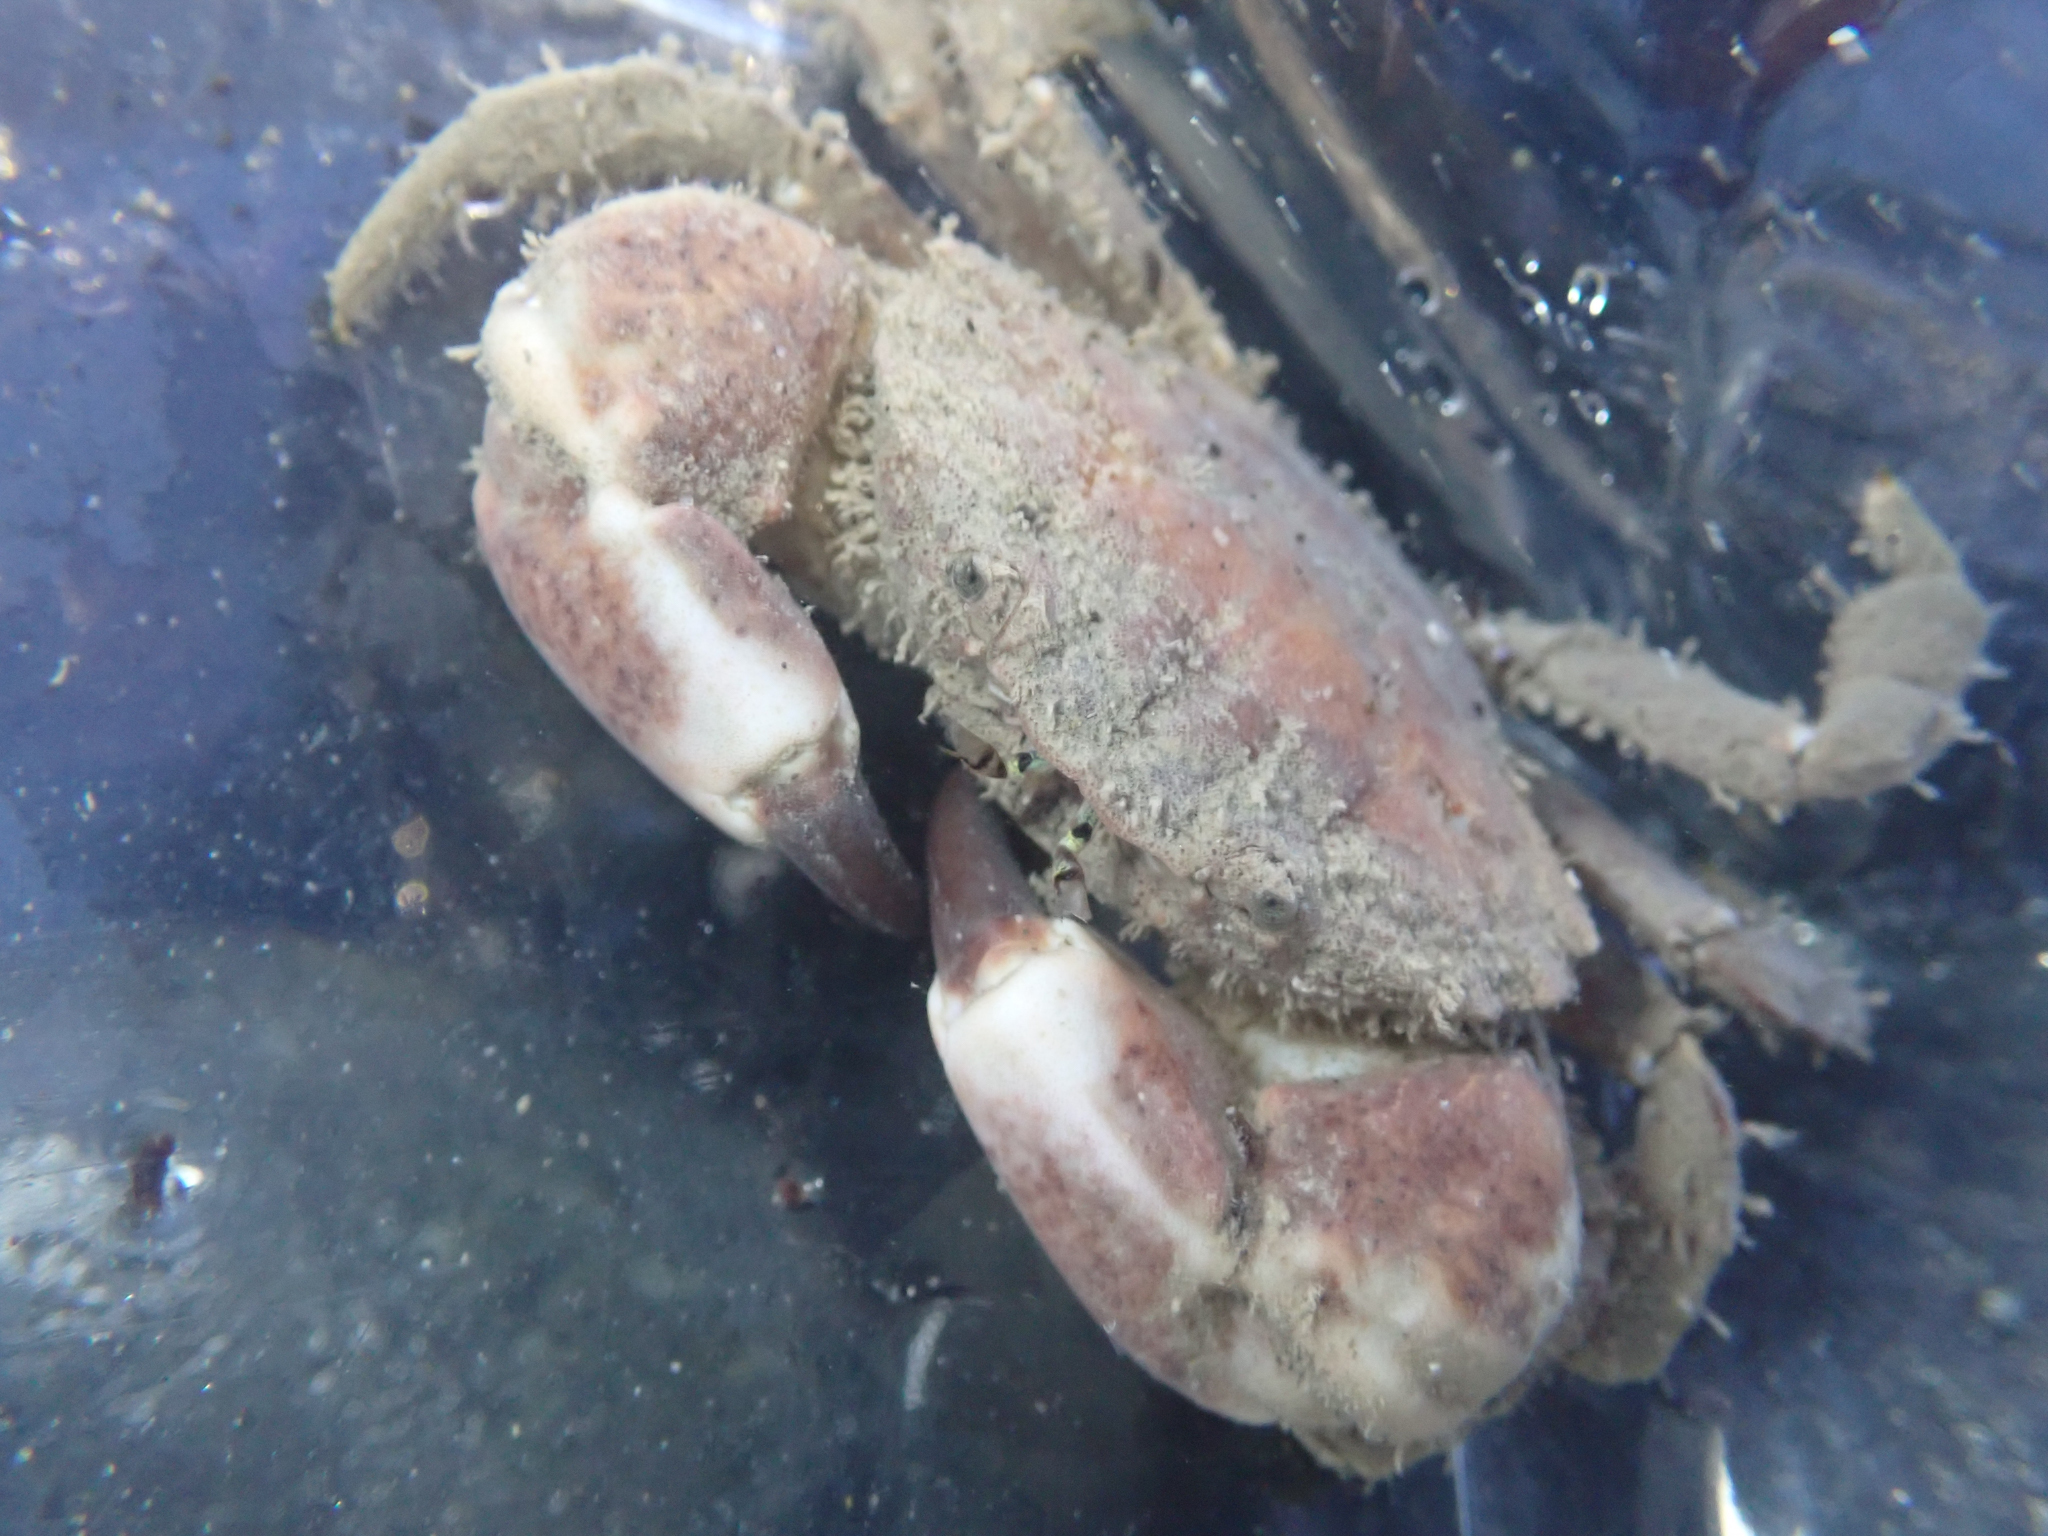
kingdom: Animalia
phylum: Arthropoda
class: Malacostraca
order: Decapoda
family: Panopeidae
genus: Lophopanopeus
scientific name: Lophopanopeus bellus
